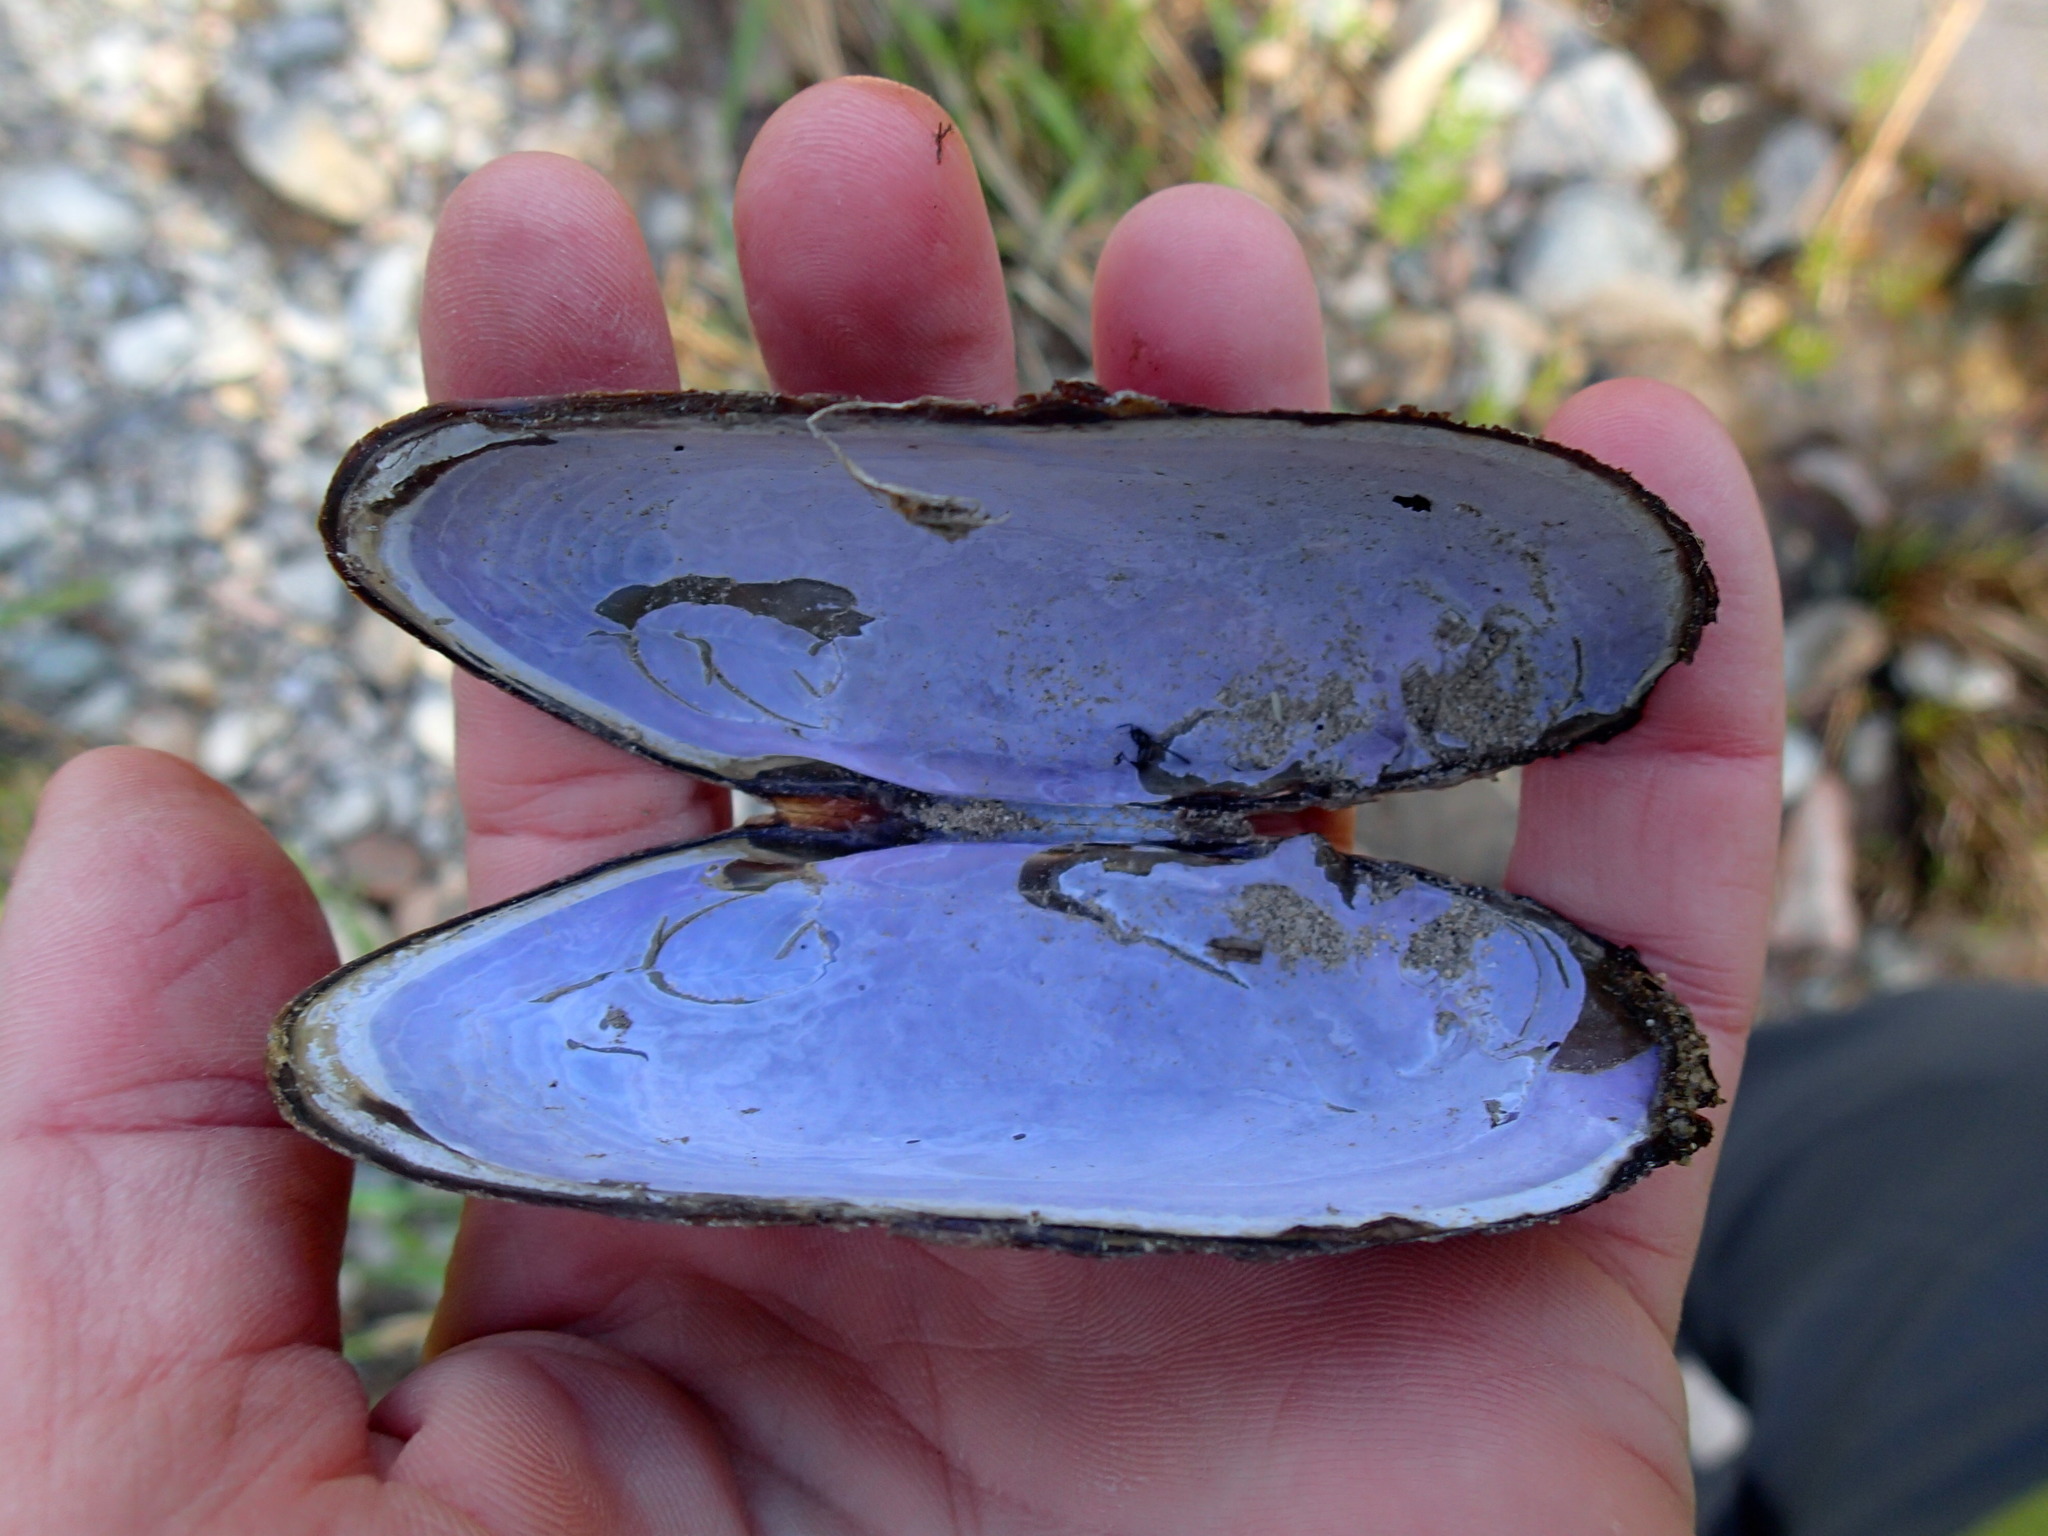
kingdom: Animalia
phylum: Mollusca
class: Bivalvia
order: Unionida
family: Margaritiferidae
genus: Margaritifera
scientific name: Margaritifera falcata
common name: Western pearlshell
